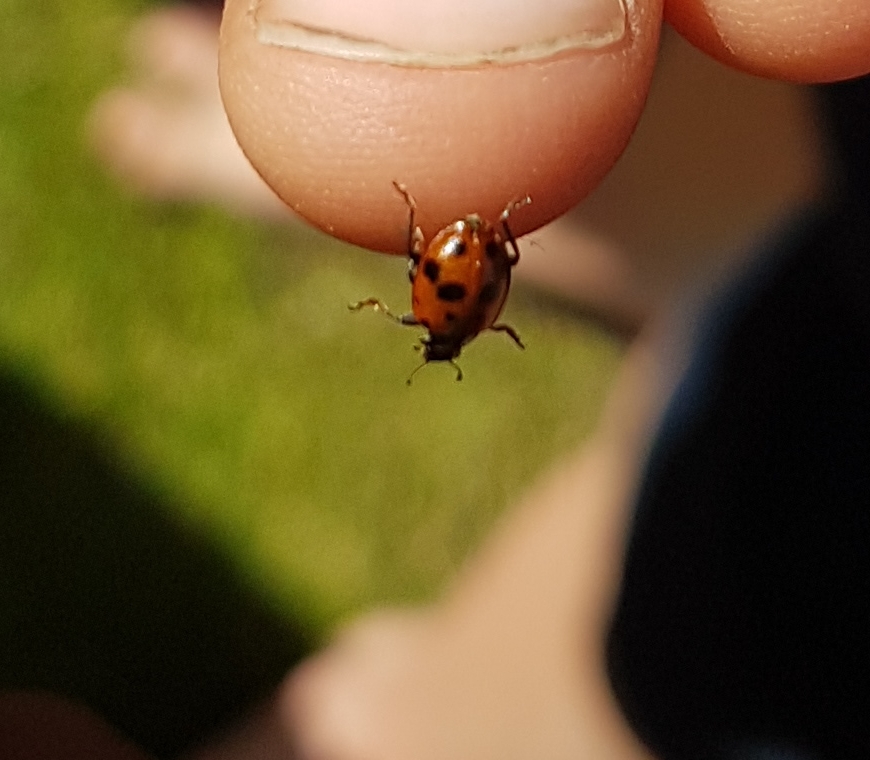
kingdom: Animalia
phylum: Arthropoda
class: Insecta
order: Coleoptera
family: Coccinellidae
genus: Hippodamia
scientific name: Hippodamia variegata
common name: Ladybird beetle
